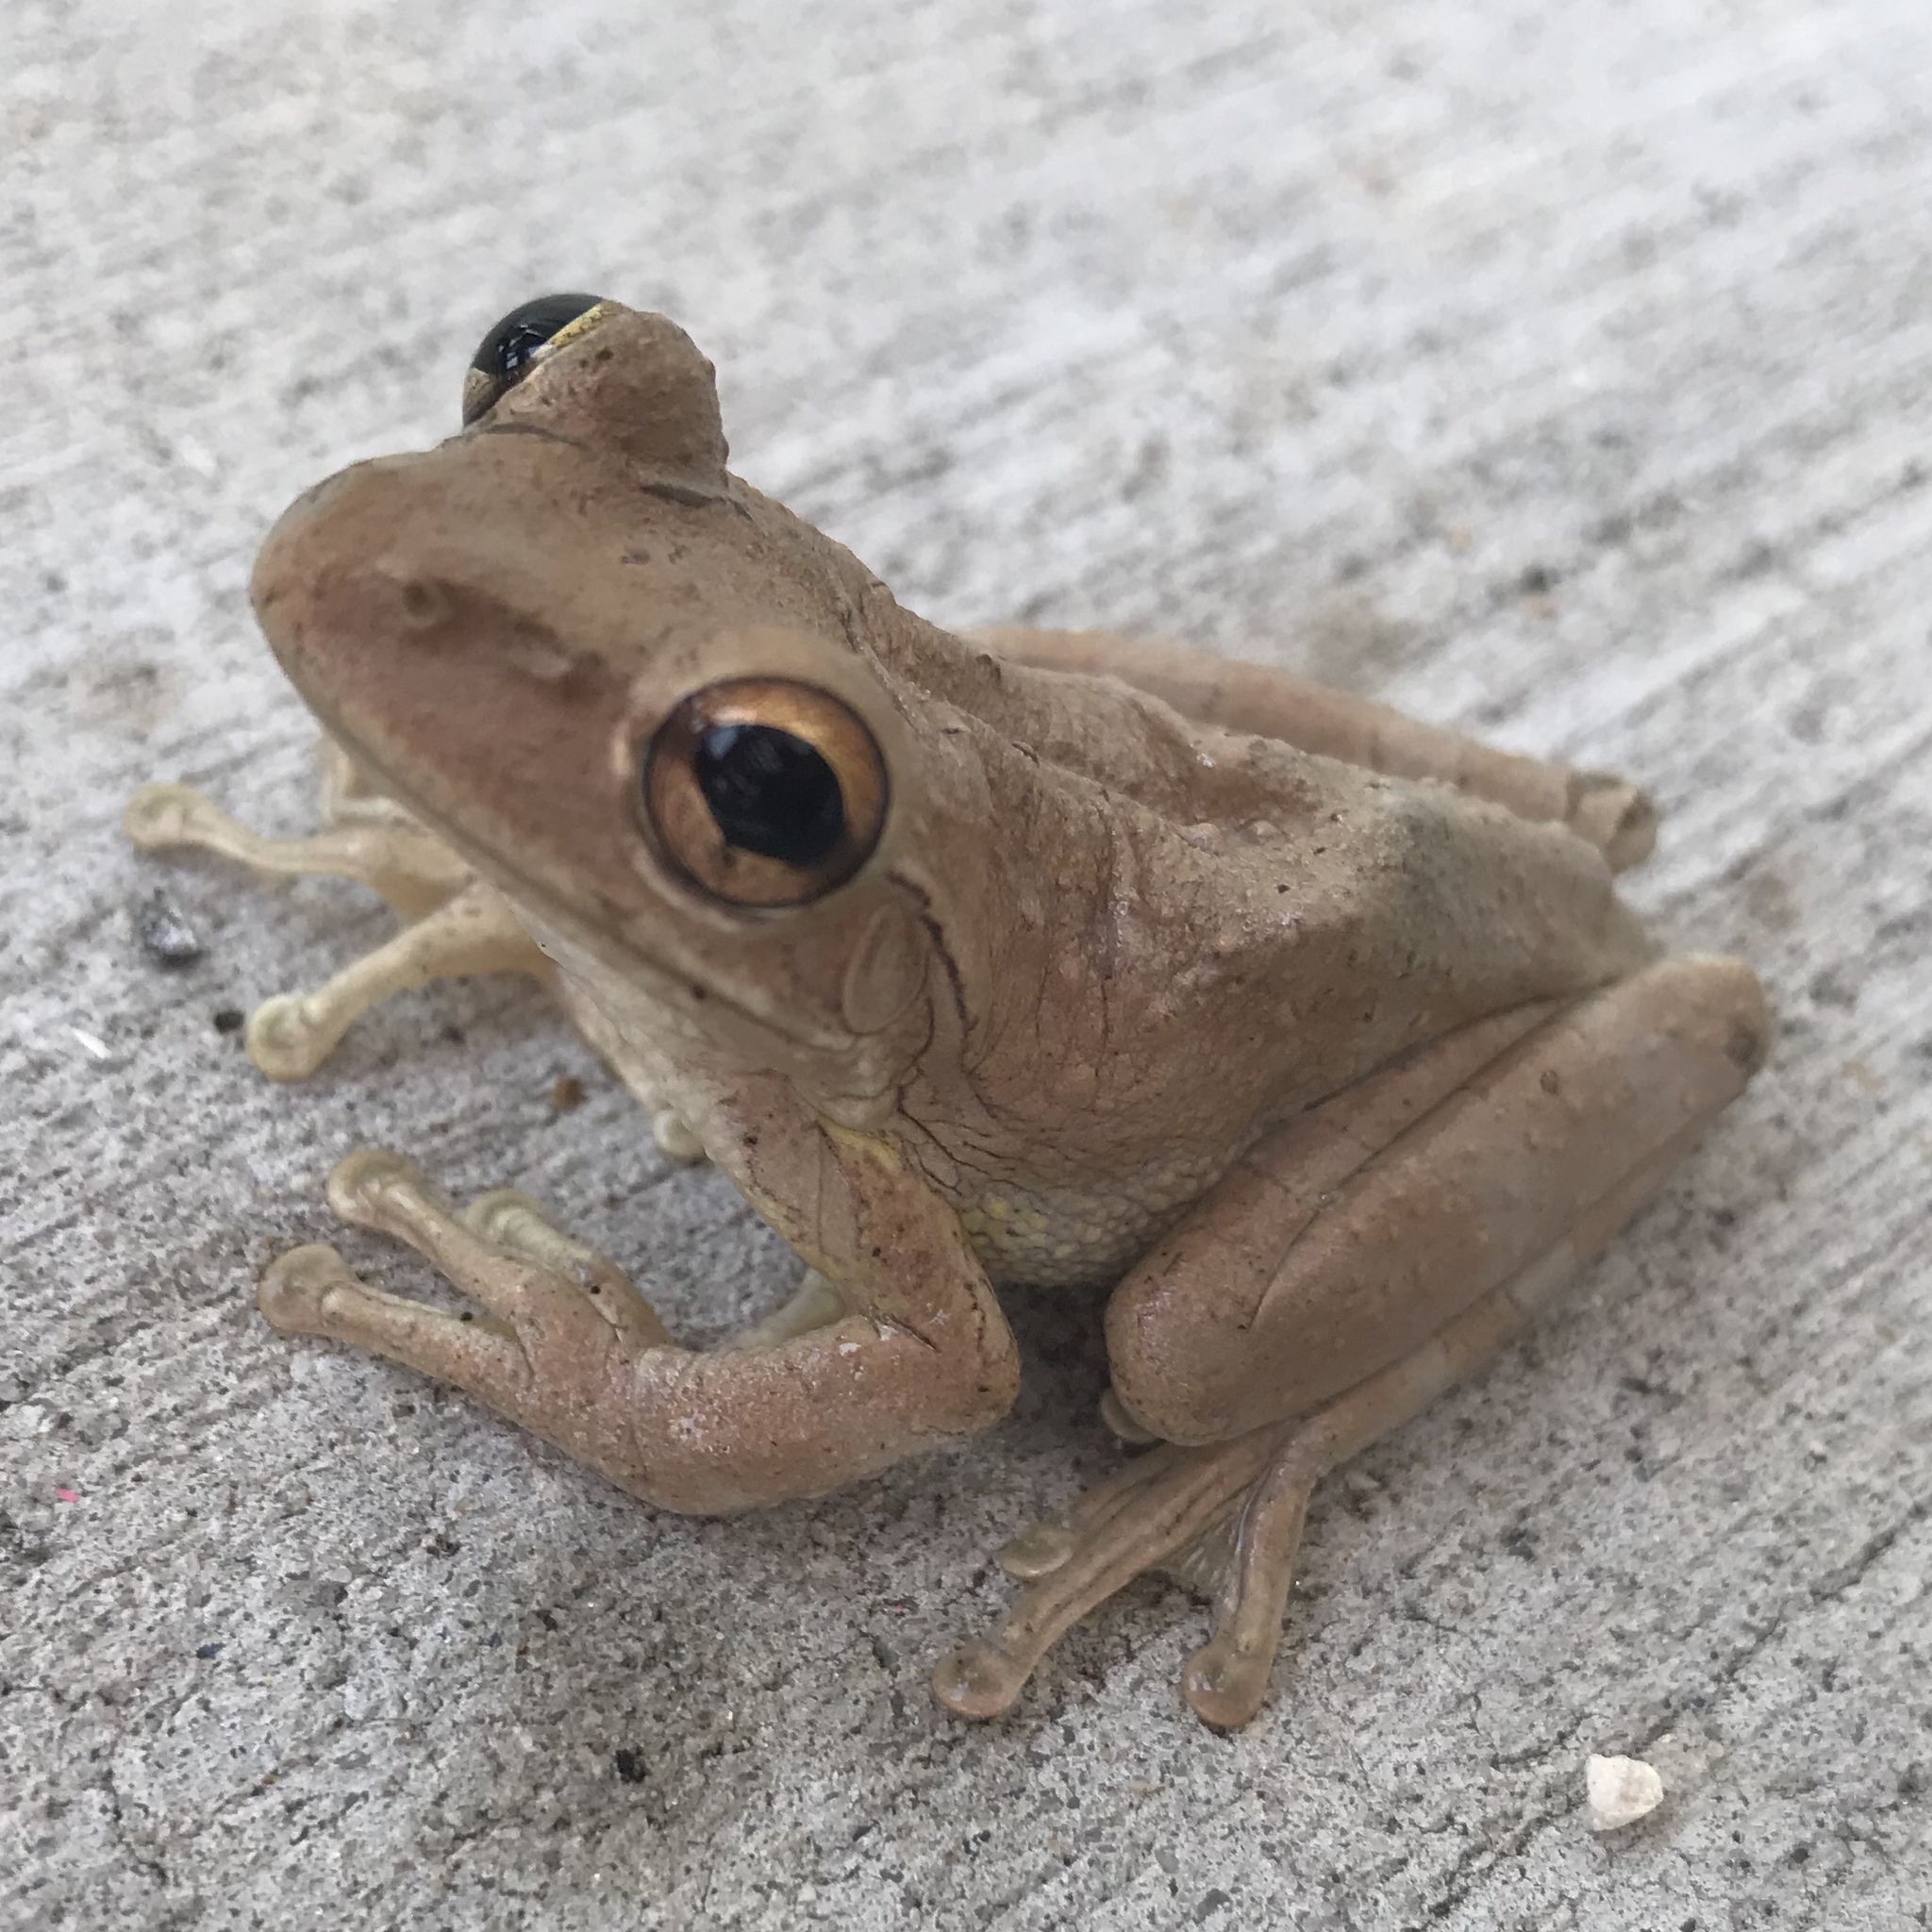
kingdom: Animalia
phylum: Chordata
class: Amphibia
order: Anura
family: Hylidae
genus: Osteopilus
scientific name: Osteopilus septentrionalis
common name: Cuban treefrog
